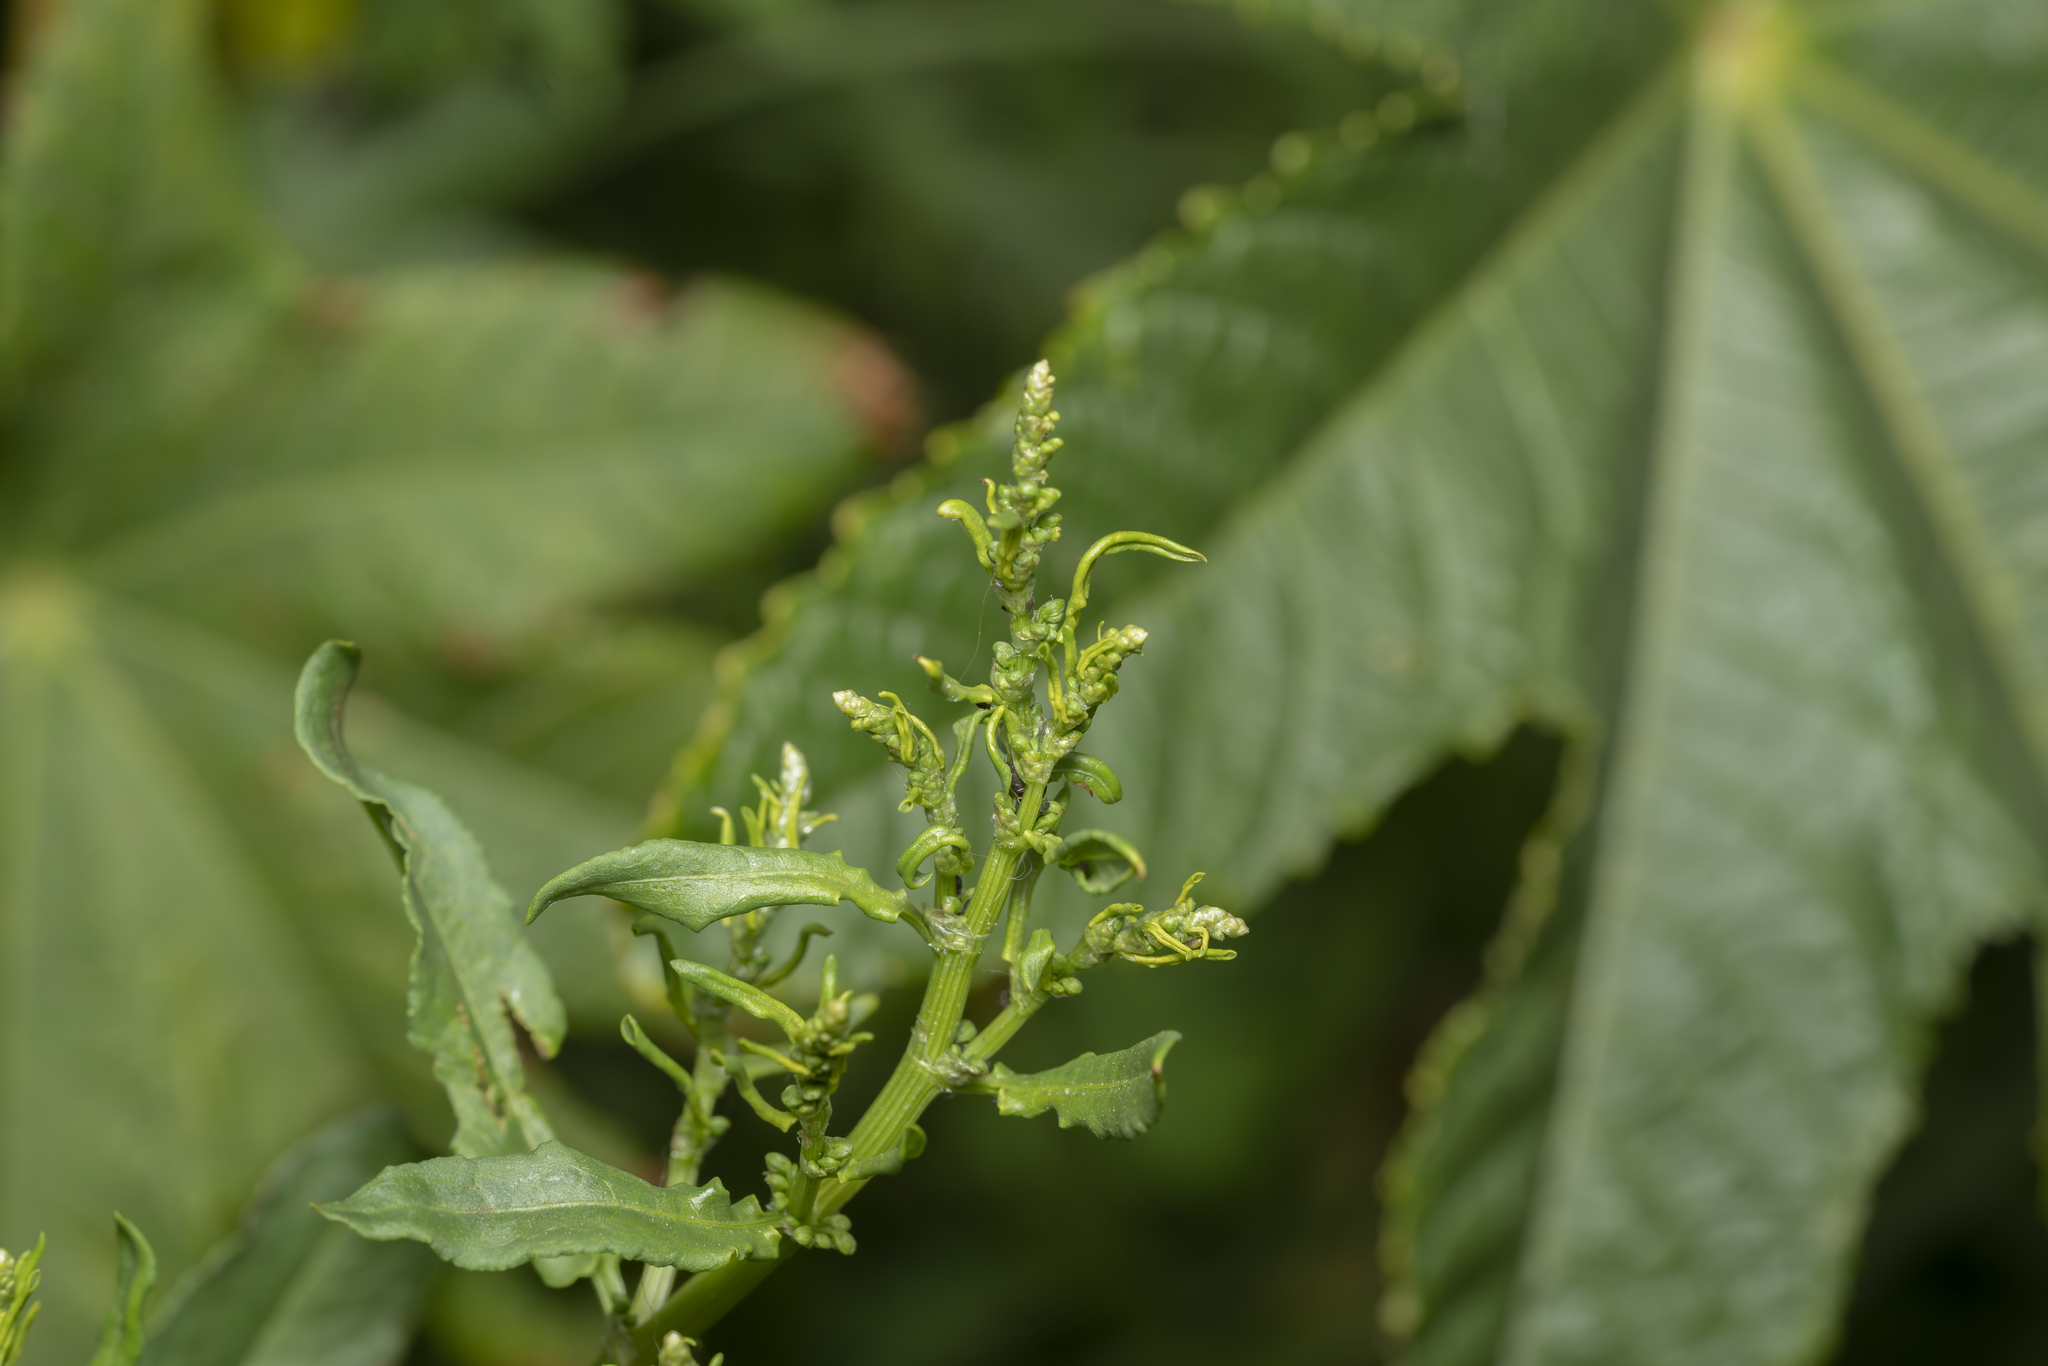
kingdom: Plantae
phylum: Tracheophyta
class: Magnoliopsida
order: Caryophyllales
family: Polygonaceae
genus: Rumex
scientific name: Rumex pulcher
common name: Fiddle dock
